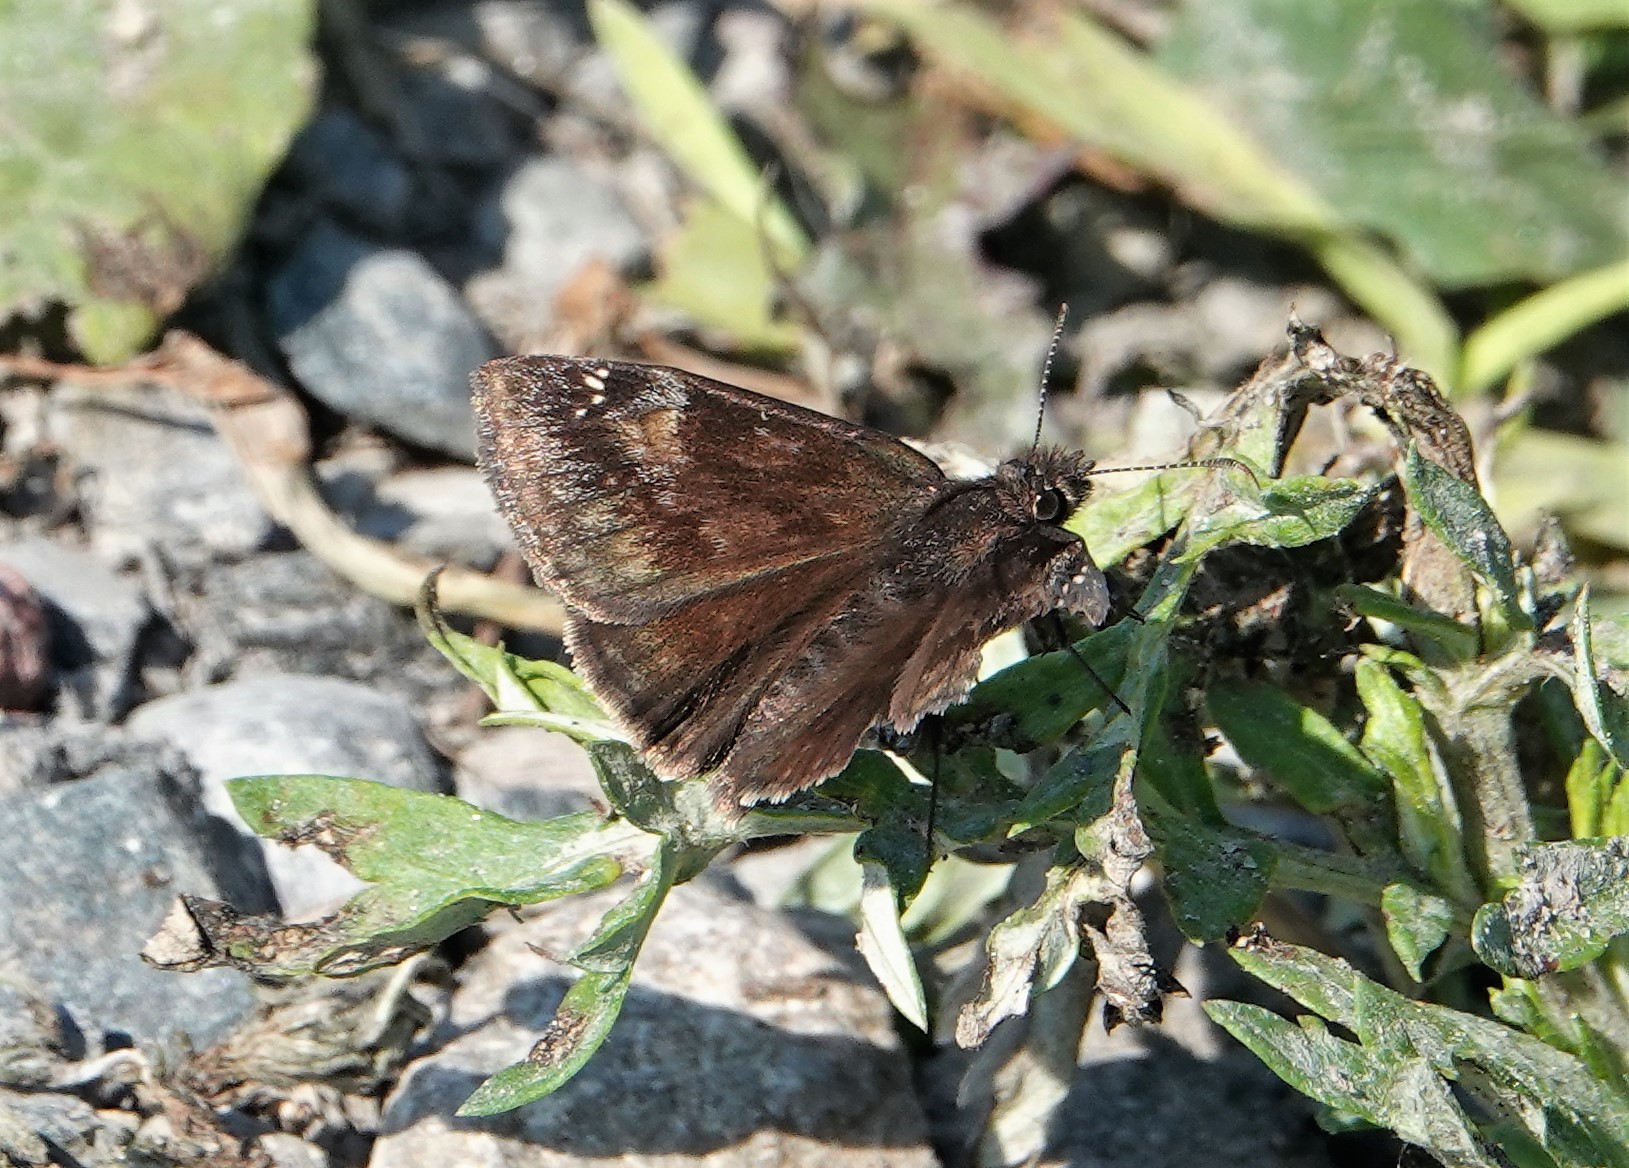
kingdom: Animalia
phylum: Arthropoda
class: Insecta
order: Lepidoptera
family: Hesperiidae
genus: Erynnis
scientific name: Erynnis baptisiae
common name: Wild indigo duskywing
